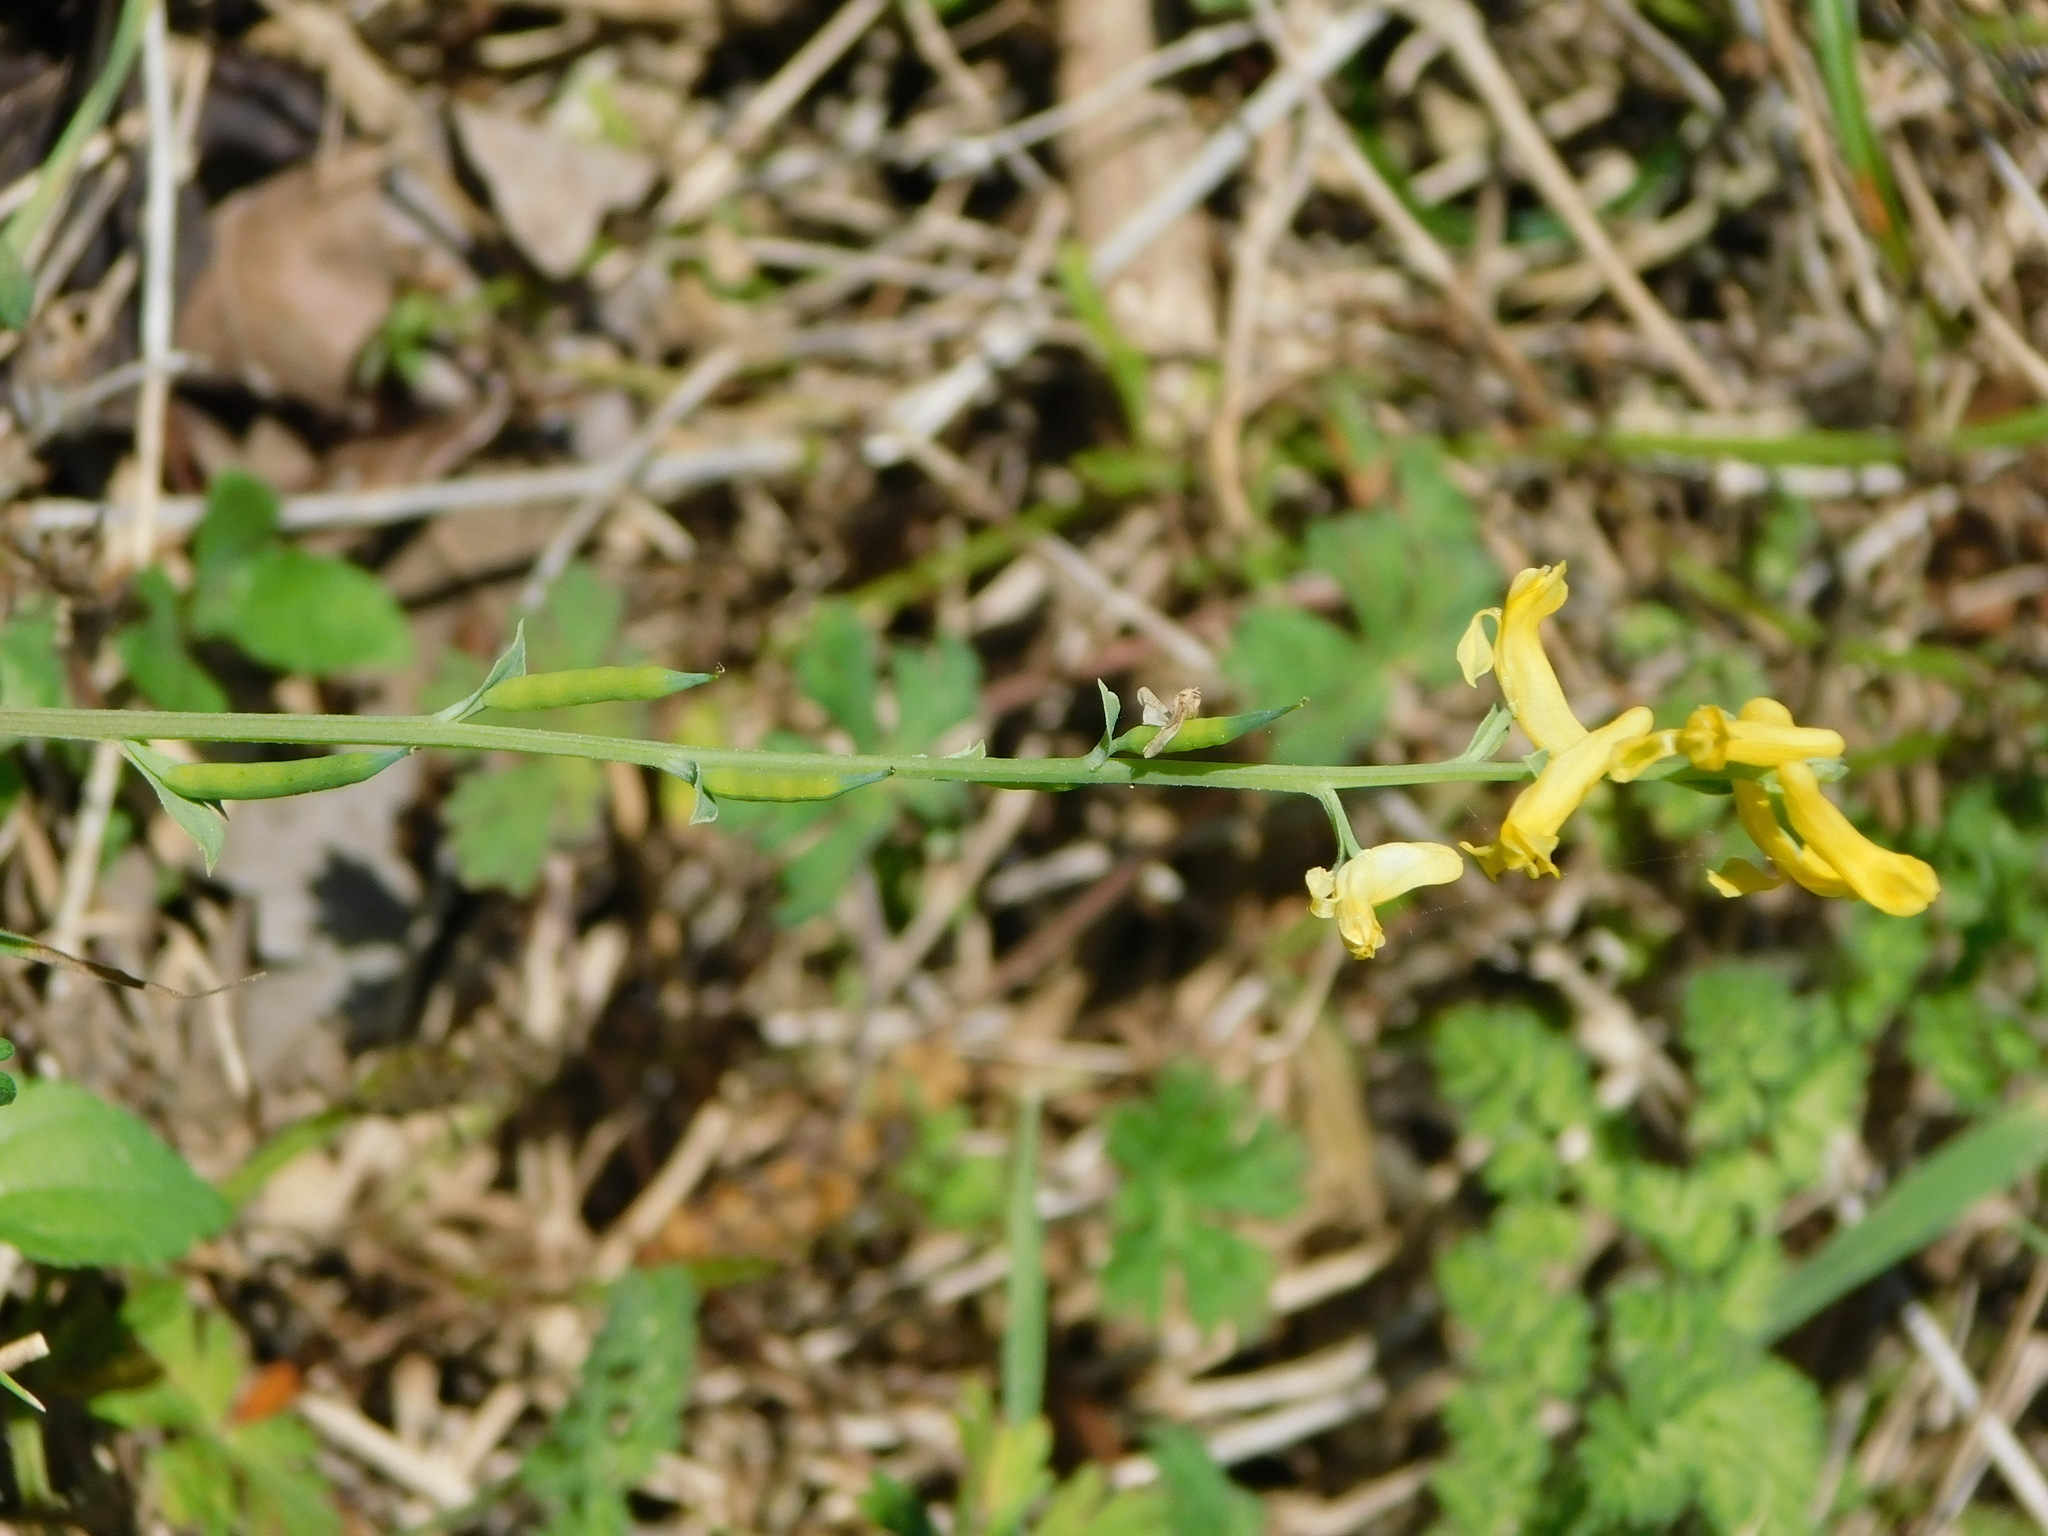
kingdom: Plantae
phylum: Tracheophyta
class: Magnoliopsida
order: Ranunculales
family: Papaveraceae
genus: Corydalis
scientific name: Corydalis micrantha
